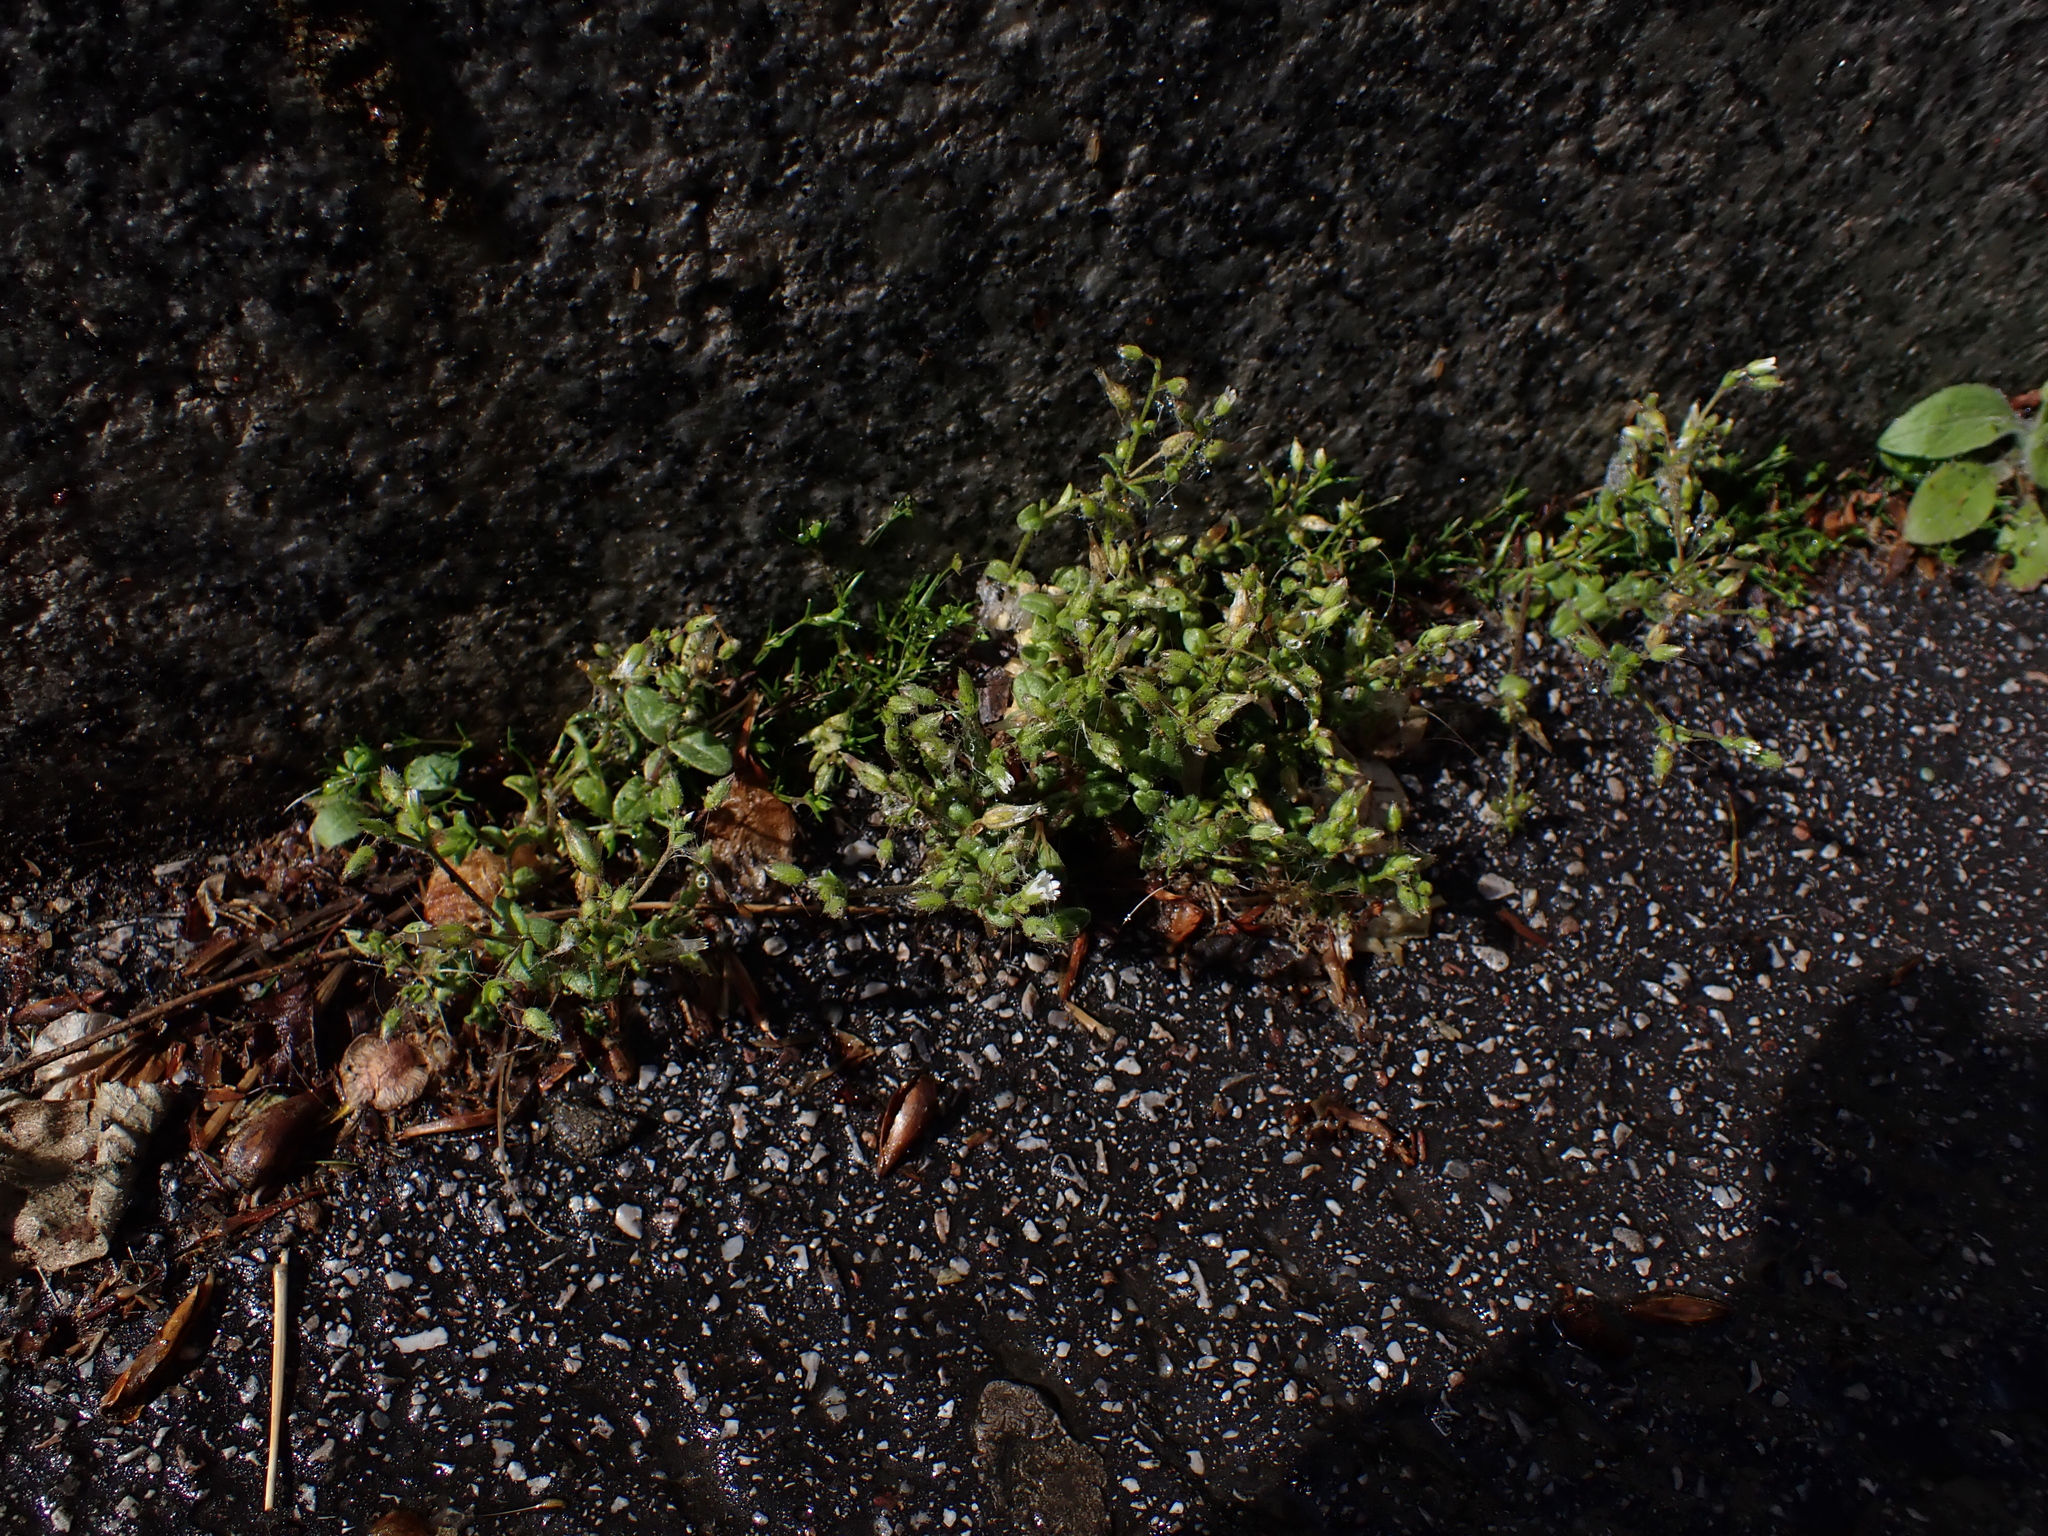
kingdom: Plantae
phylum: Tracheophyta
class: Magnoliopsida
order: Caryophyllales
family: Caryophyllaceae
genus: Cerastium
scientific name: Cerastium pumilum
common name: Dwarf mouse-ear
